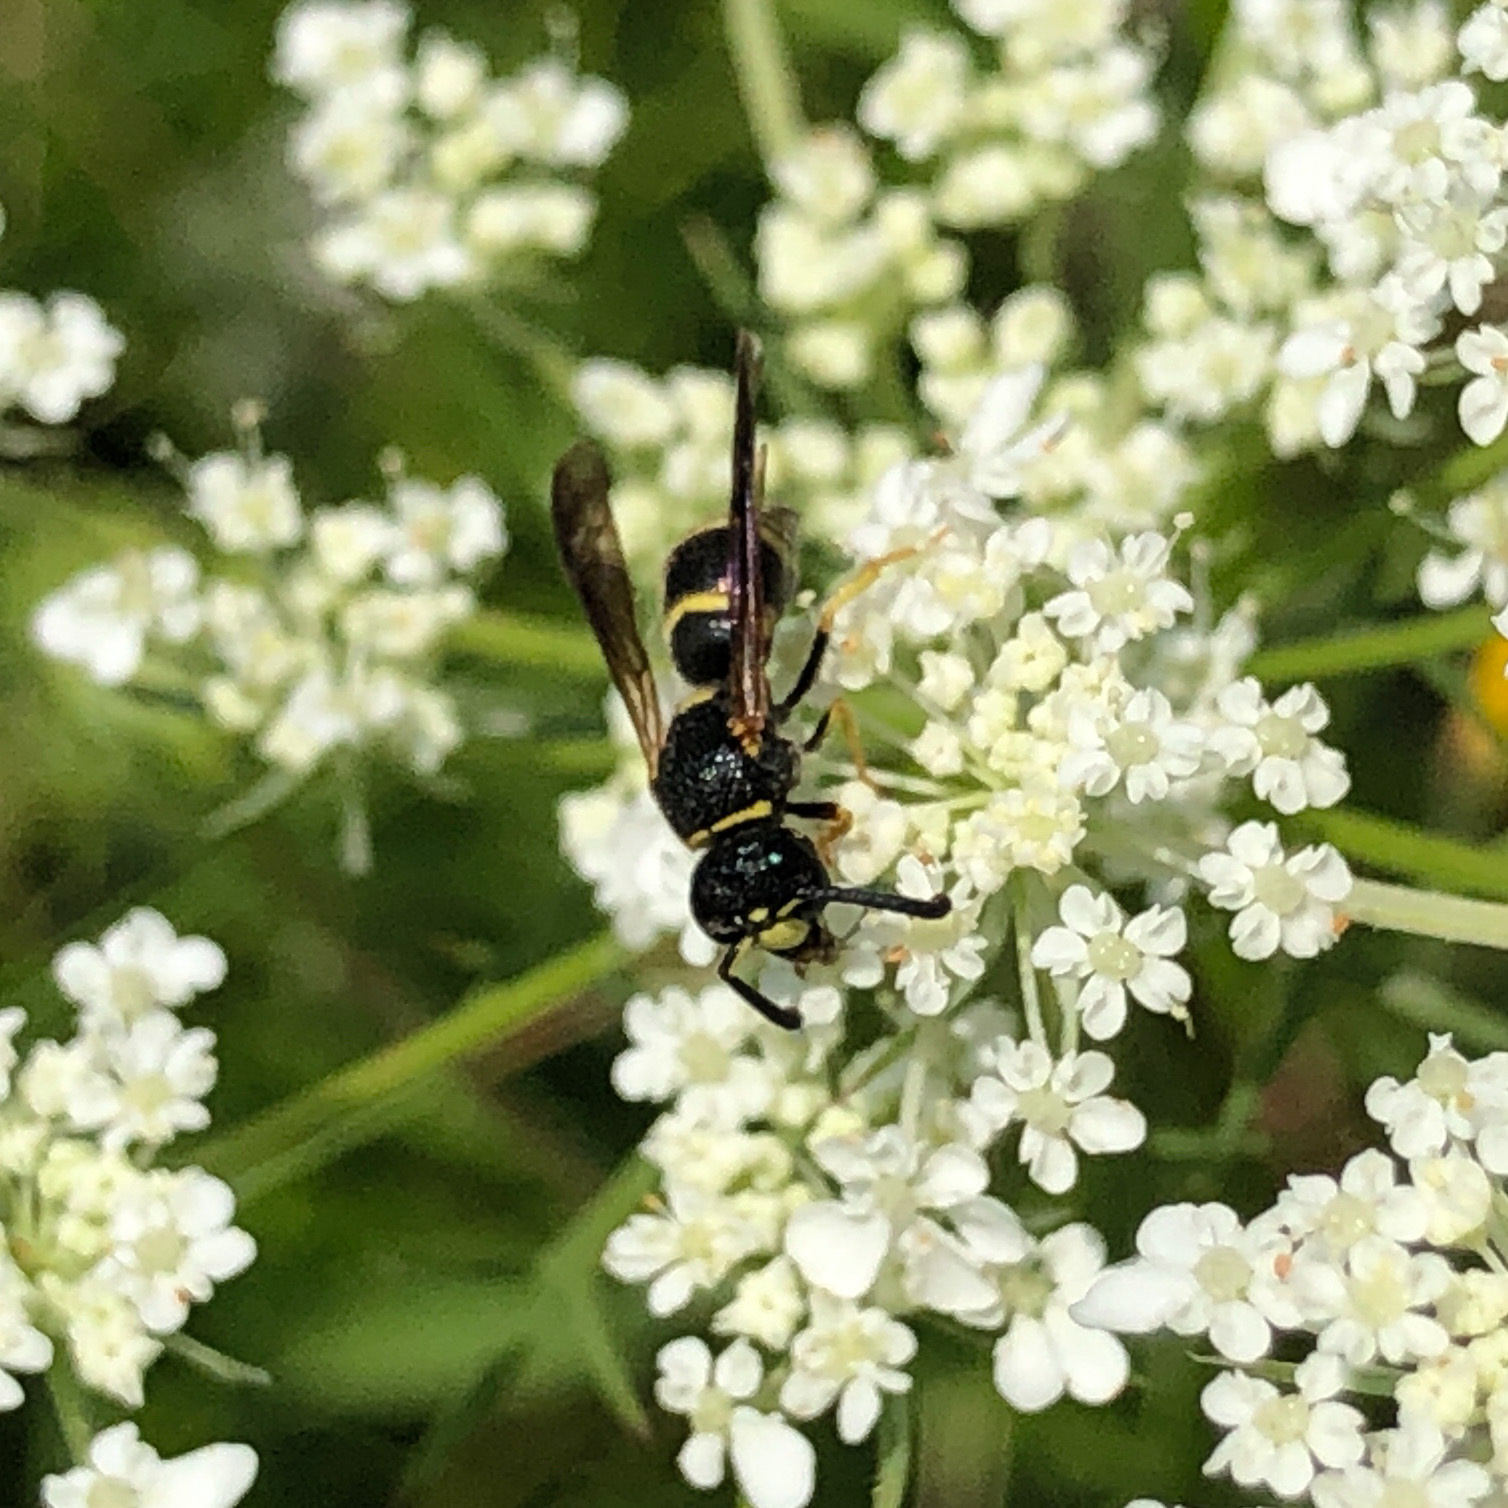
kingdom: Animalia
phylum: Arthropoda
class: Insecta
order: Hymenoptera
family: Eumenidae
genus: Euodynerus
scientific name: Euodynerus foraminatus
